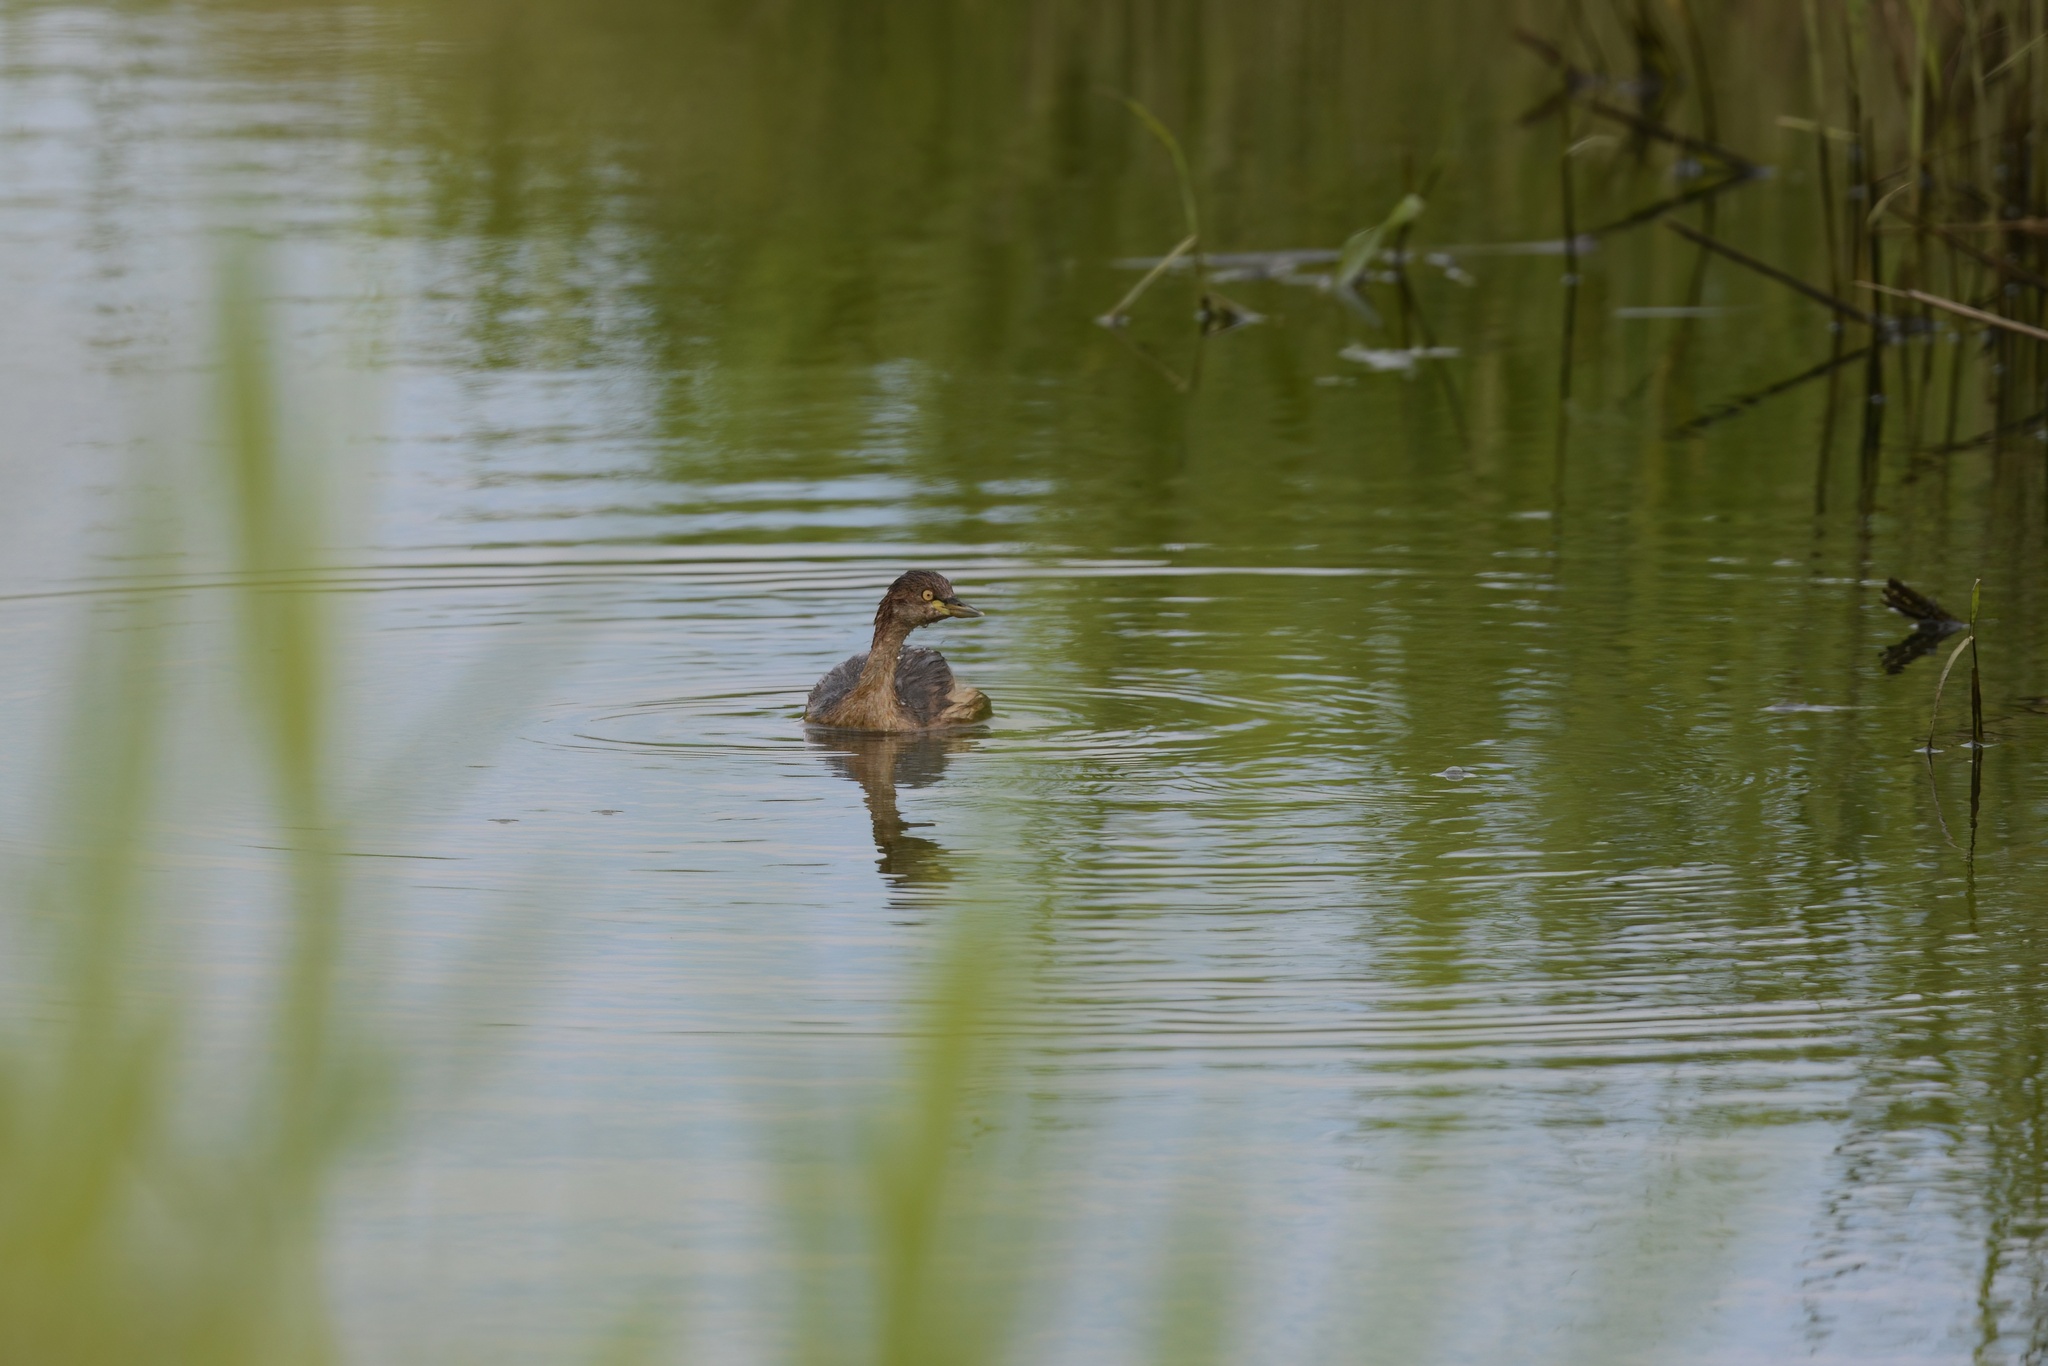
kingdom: Animalia
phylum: Chordata
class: Aves
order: Podicipediformes
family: Podicipedidae
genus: Tachybaptus
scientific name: Tachybaptus novaehollandiae
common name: Australasian grebe
